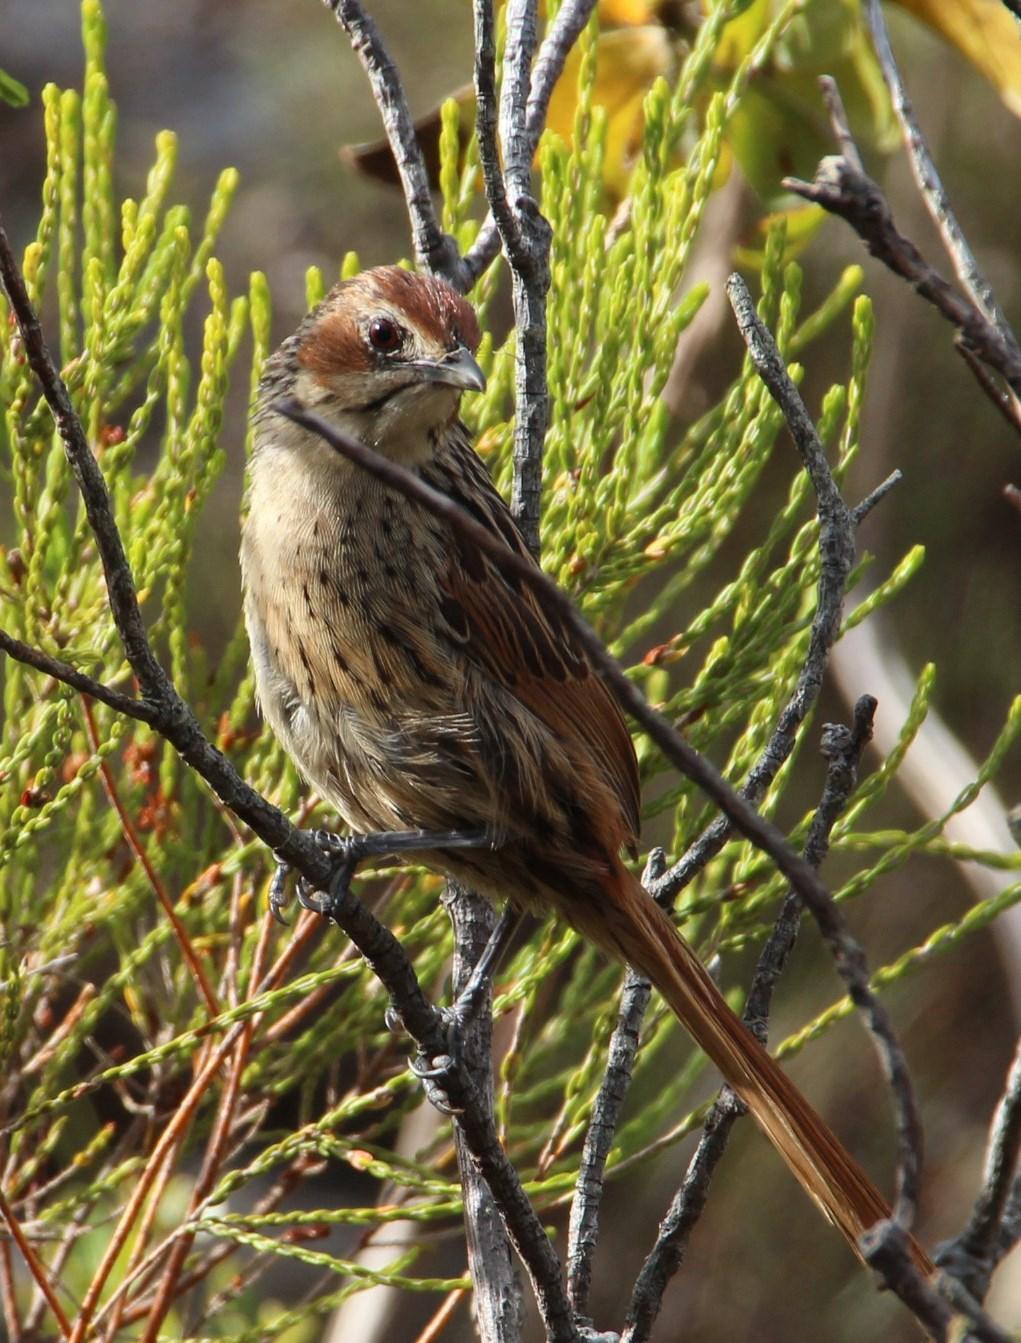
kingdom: Animalia
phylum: Chordata
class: Aves
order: Passeriformes
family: Macrosphenidae
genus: Sphenoeacus
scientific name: Sphenoeacus afer
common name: Cape grassbird
